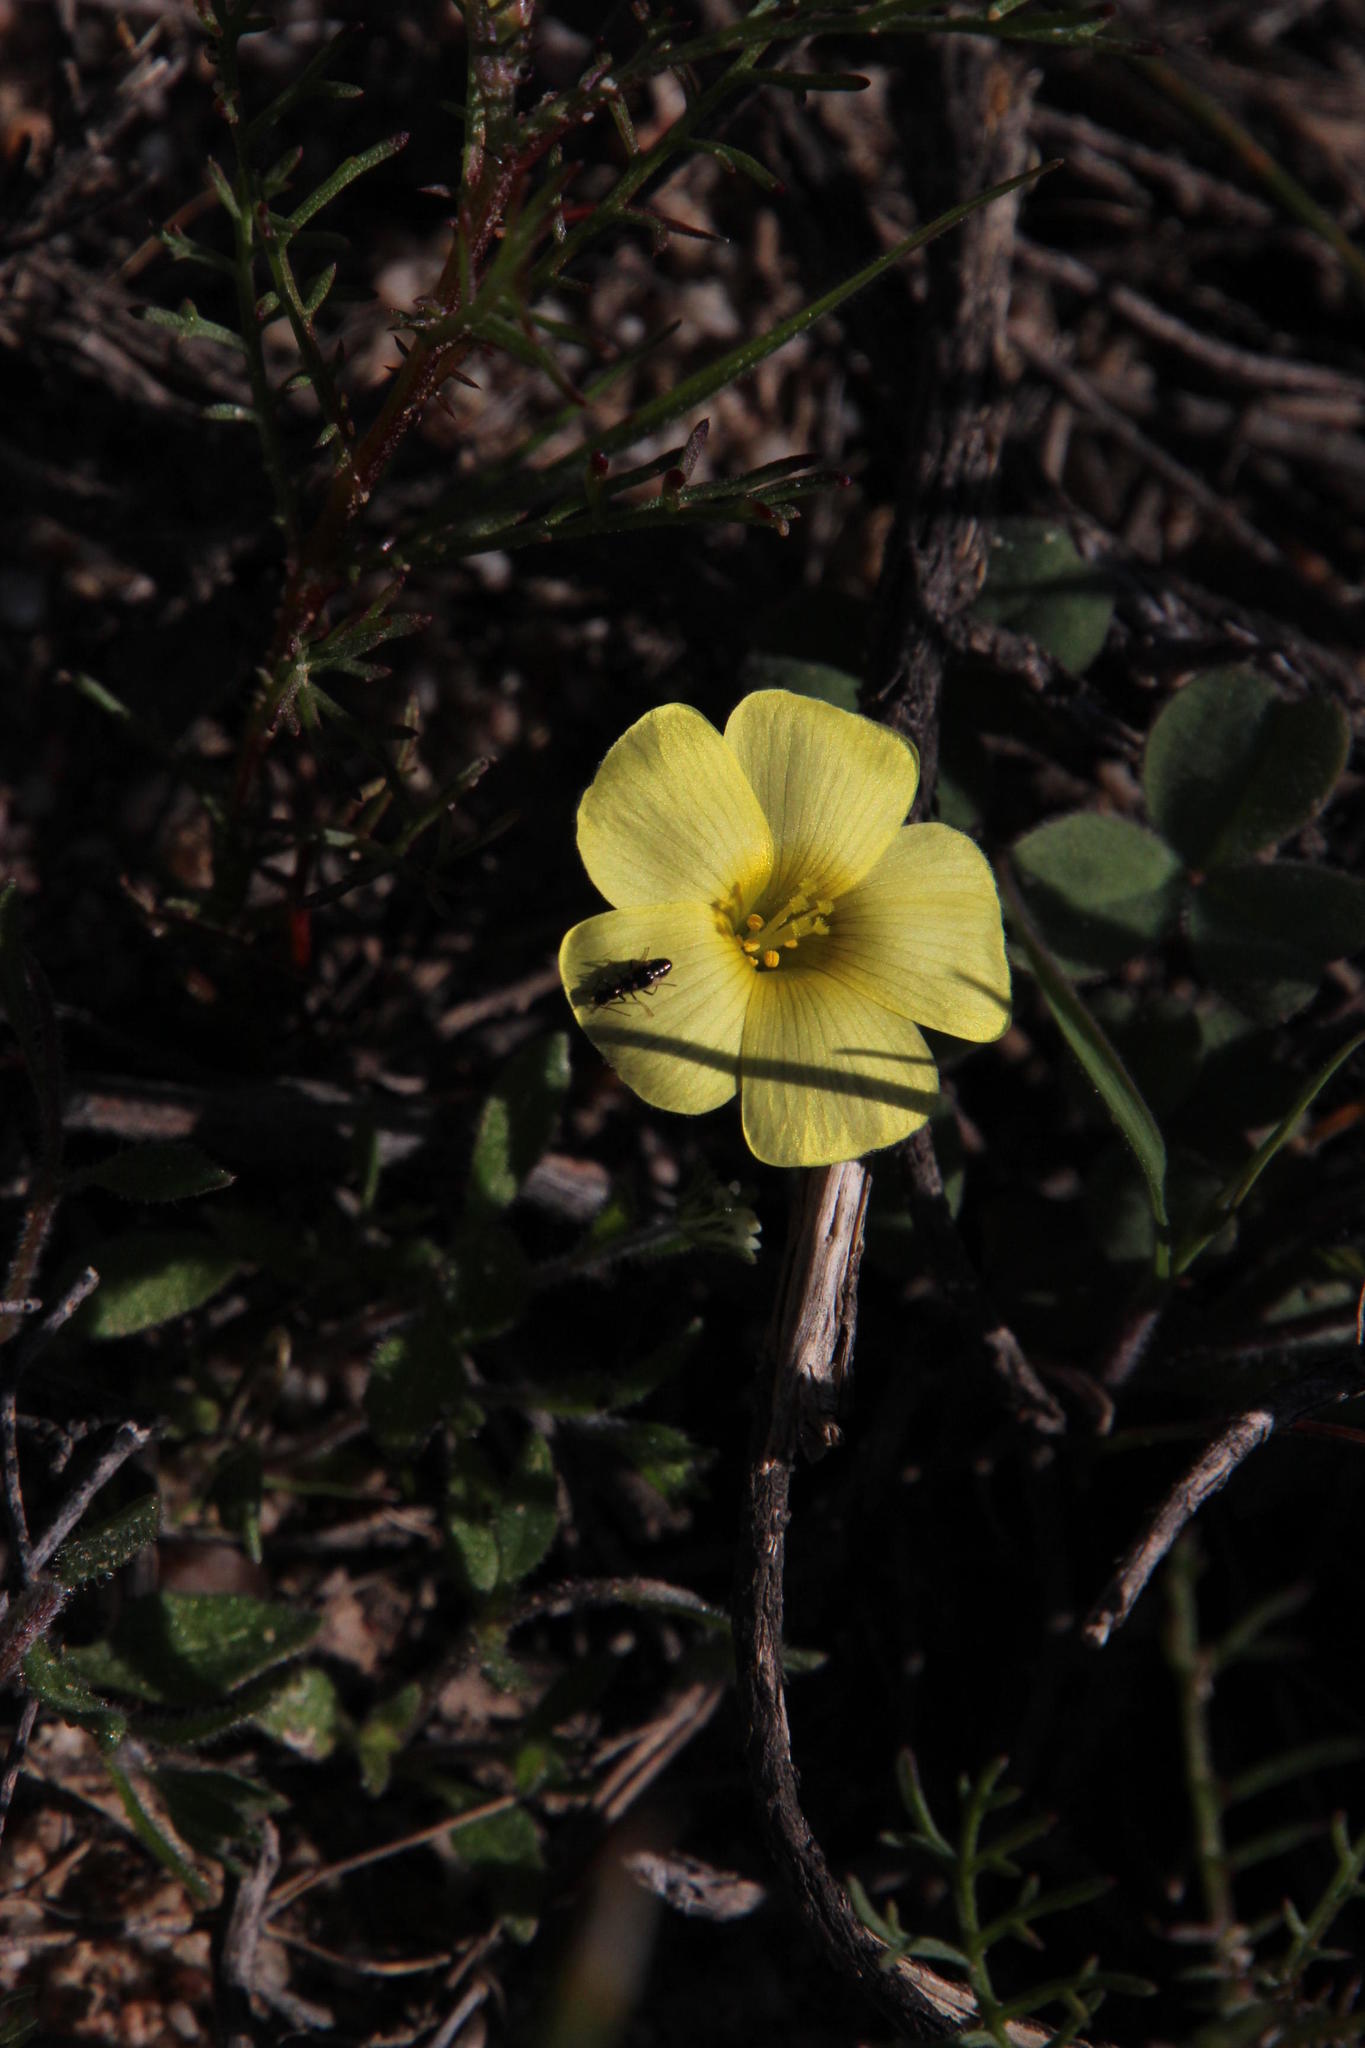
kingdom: Plantae
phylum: Tracheophyta
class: Magnoliopsida
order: Oxalidales
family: Oxalidaceae
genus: Oxalis
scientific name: Oxalis obtusa
